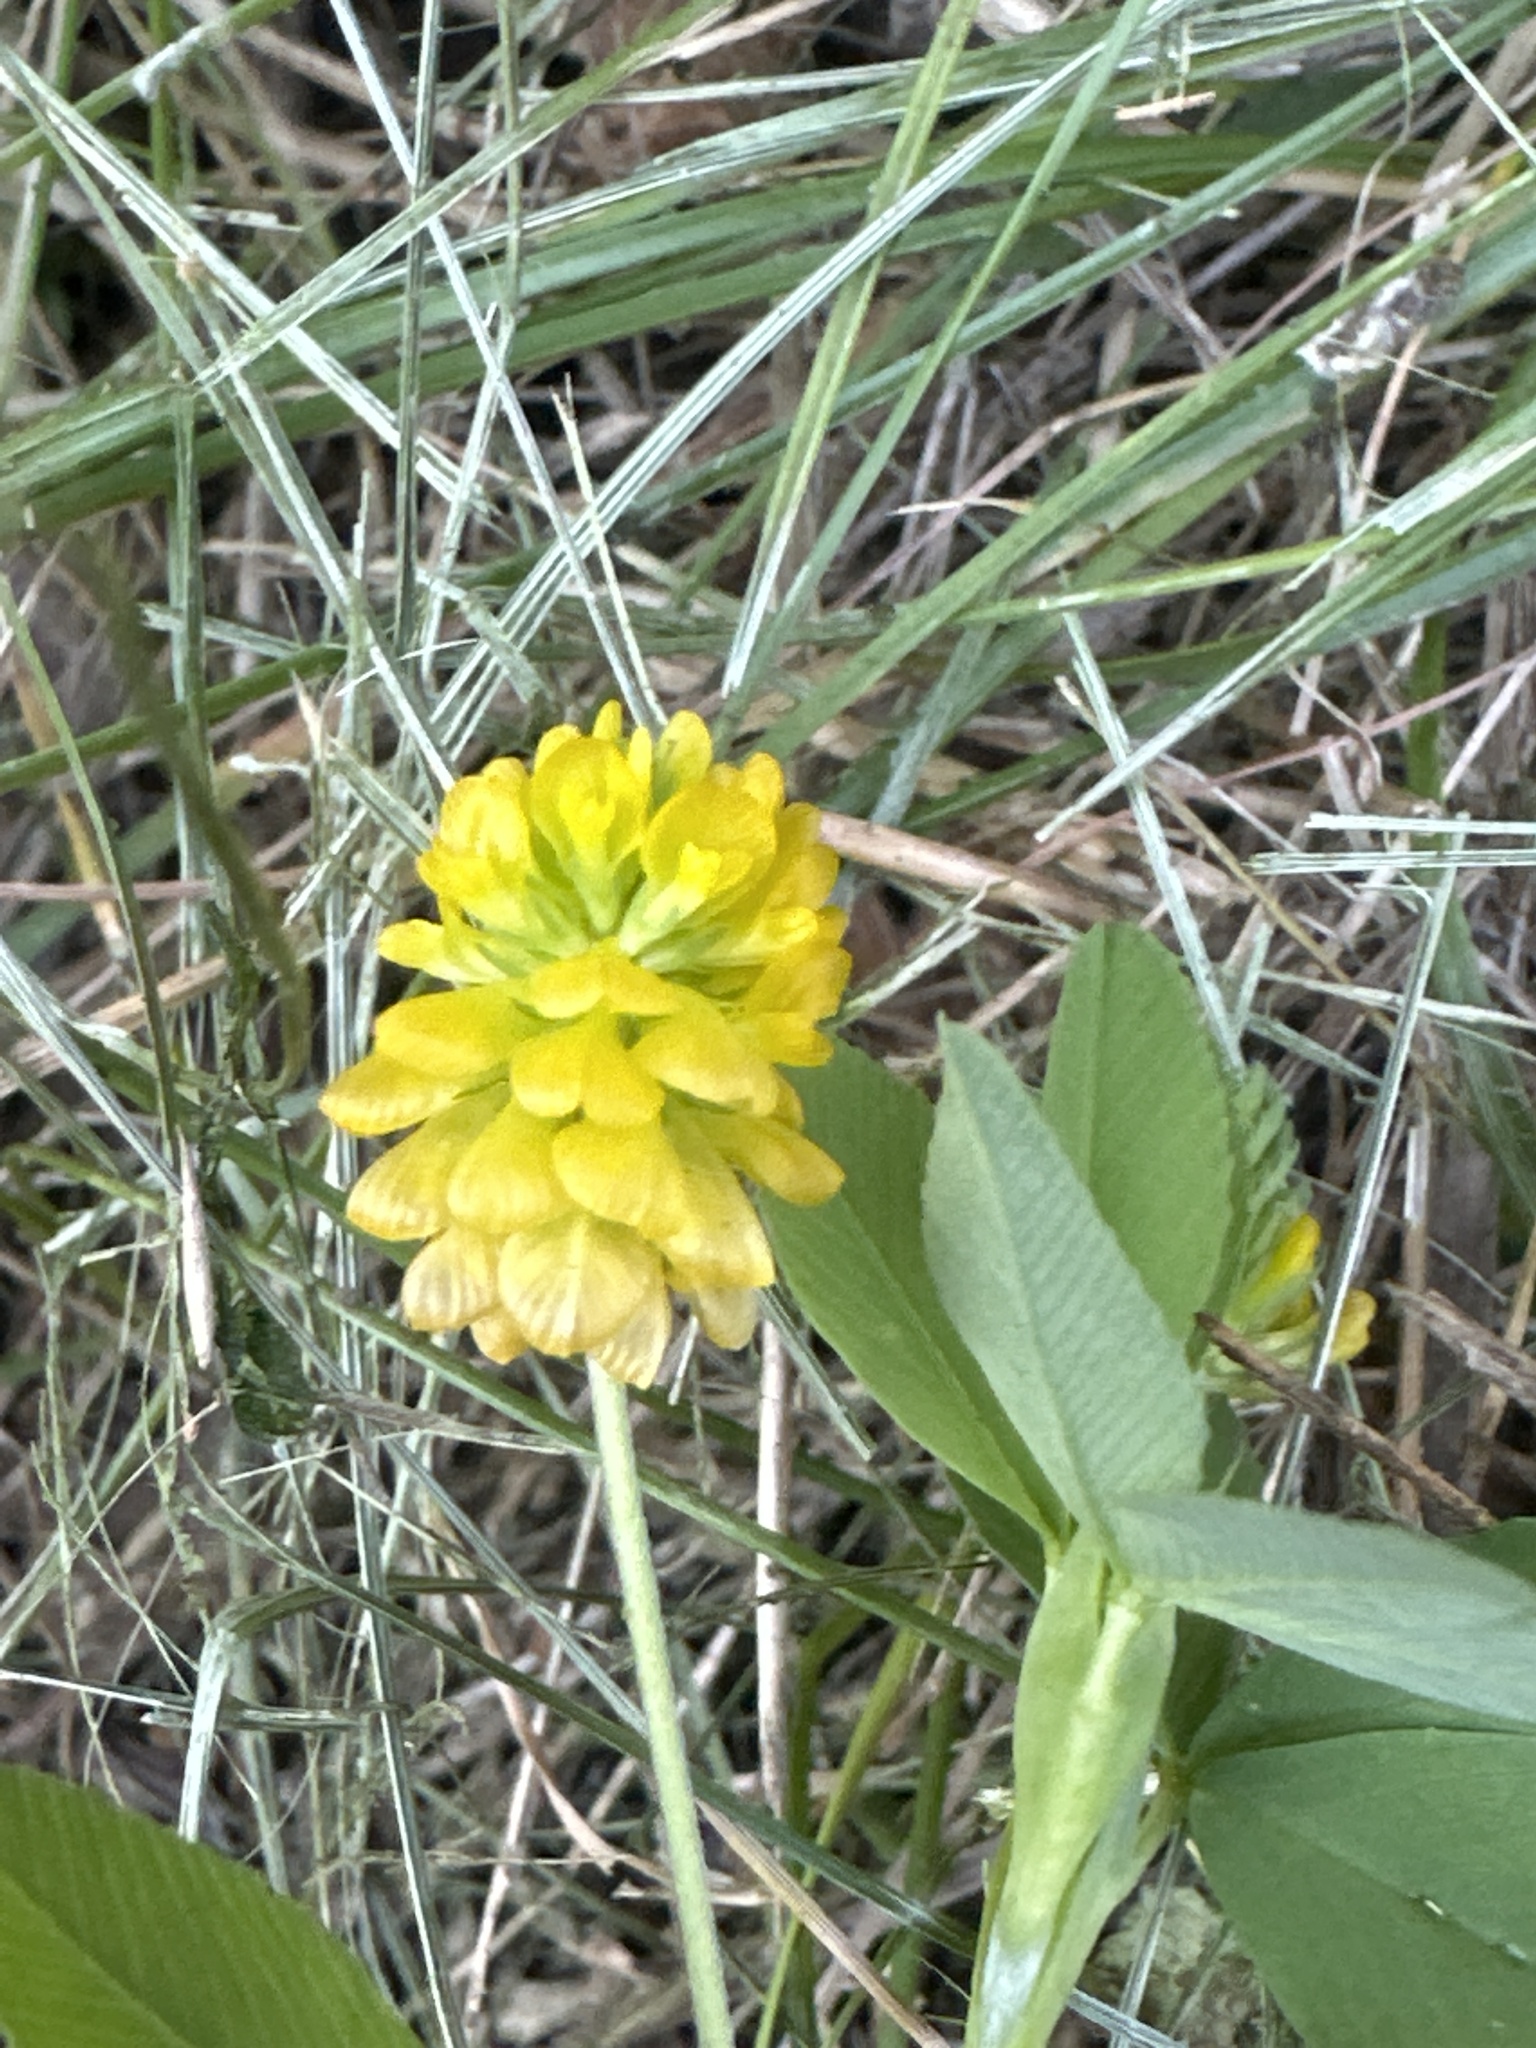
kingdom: Plantae
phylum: Tracheophyta
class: Magnoliopsida
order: Fabales
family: Fabaceae
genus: Trifolium
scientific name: Trifolium aureum
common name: Golden clover
